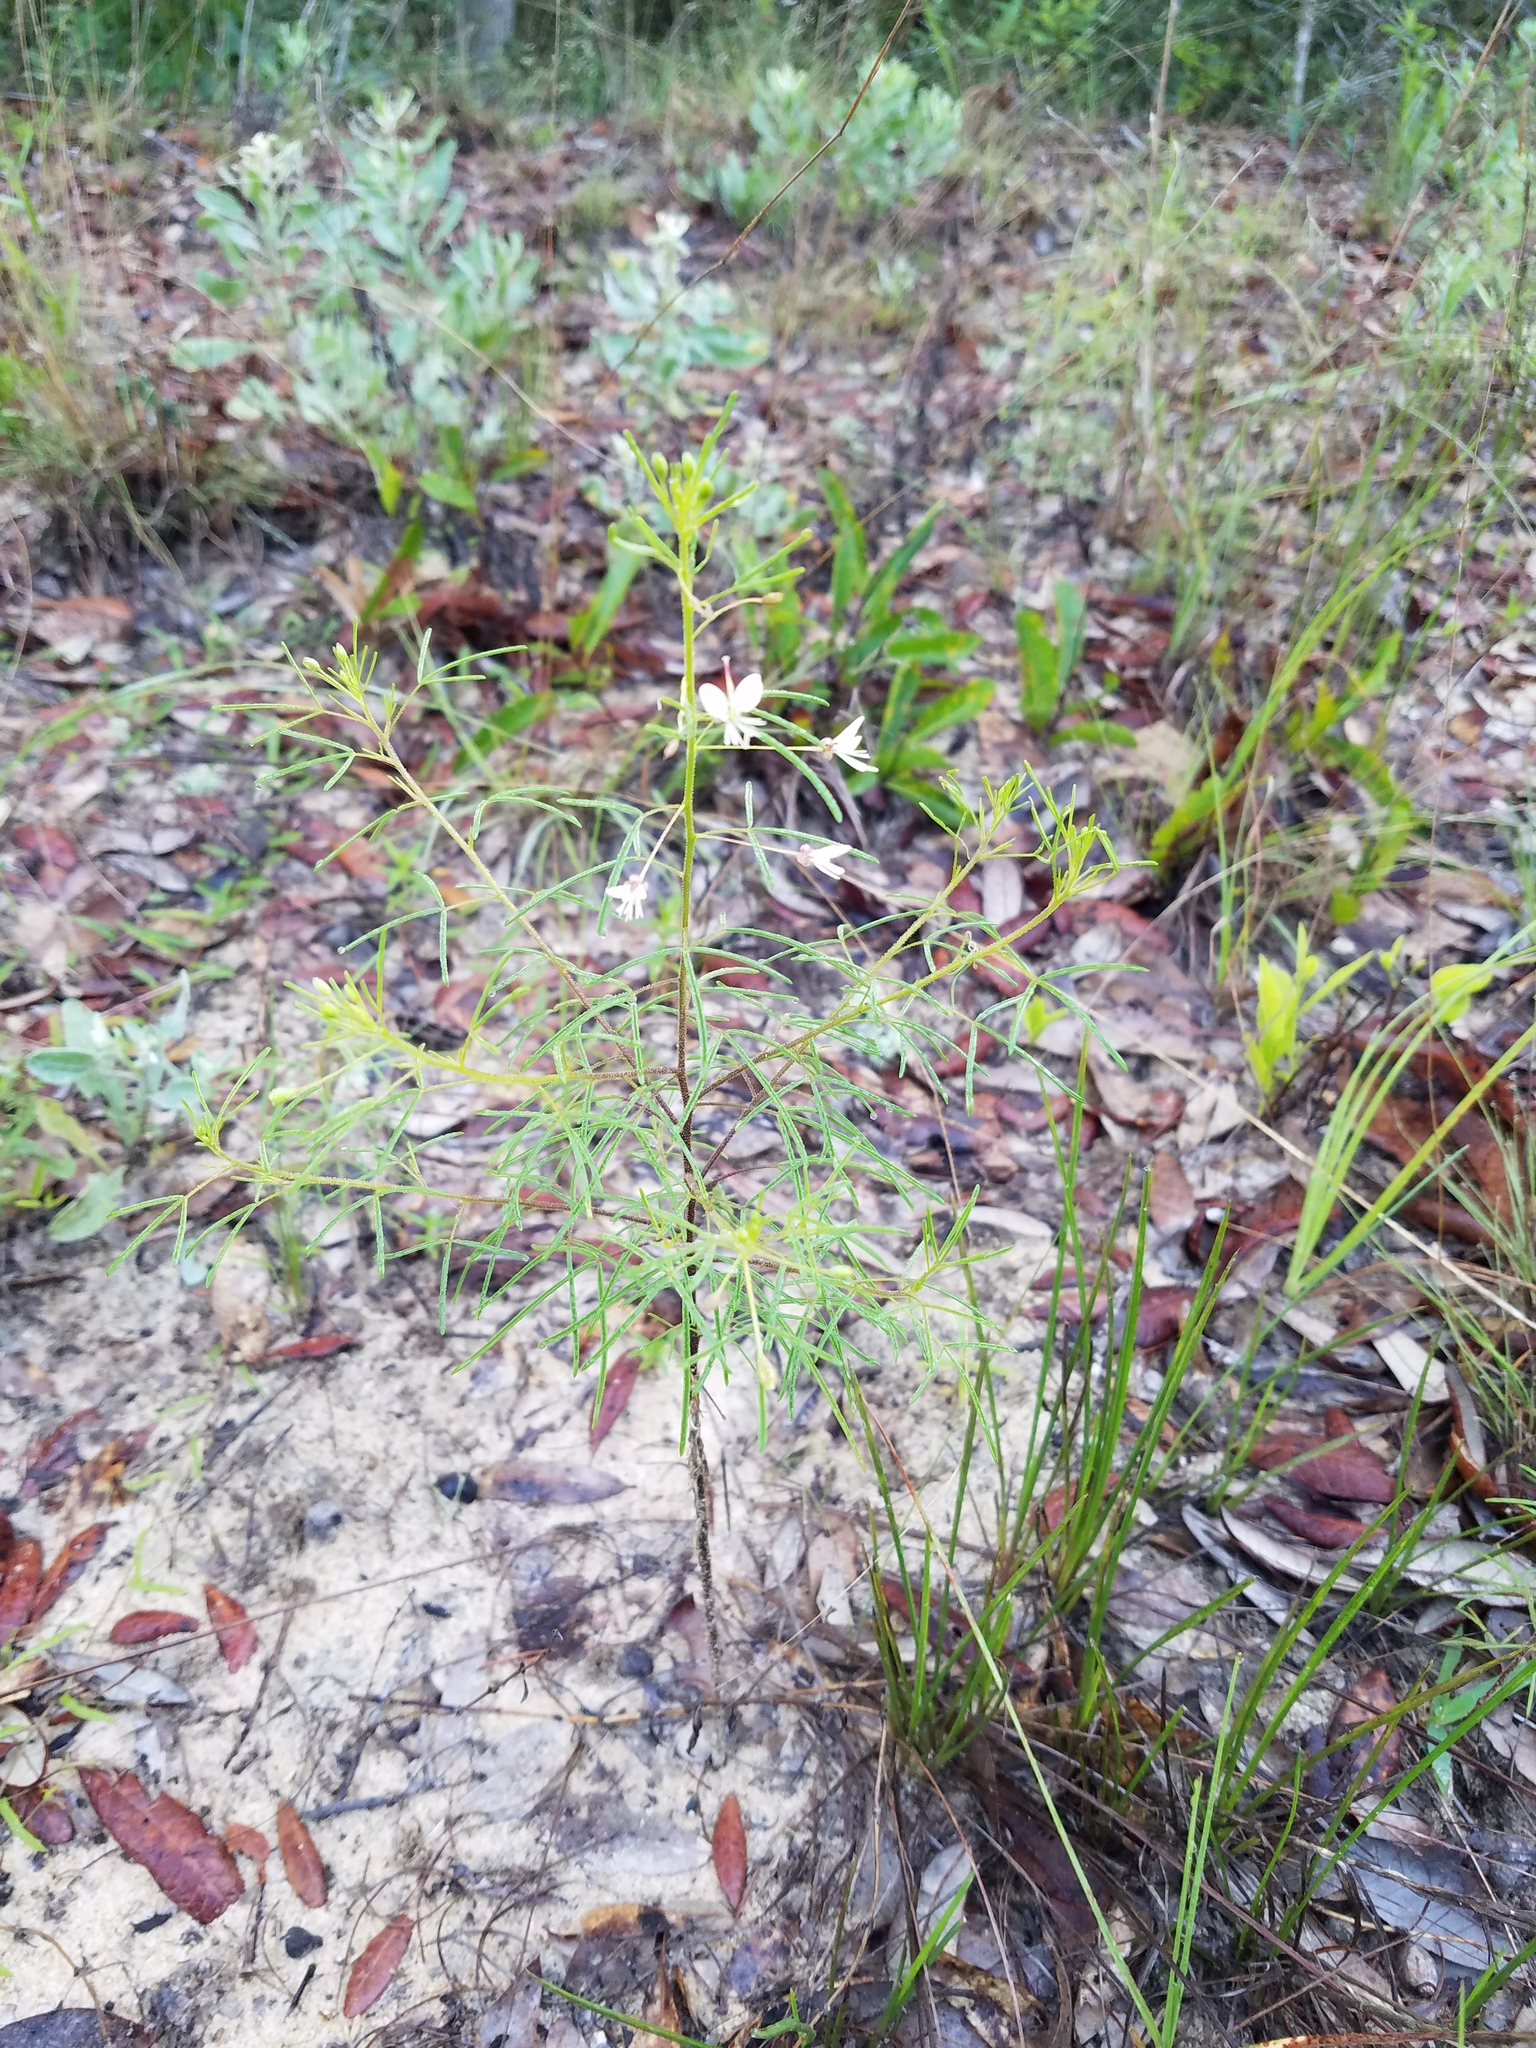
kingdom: Plantae
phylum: Tracheophyta
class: Magnoliopsida
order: Brassicales
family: Cleomaceae
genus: Polanisia
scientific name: Polanisia tenuifolia
